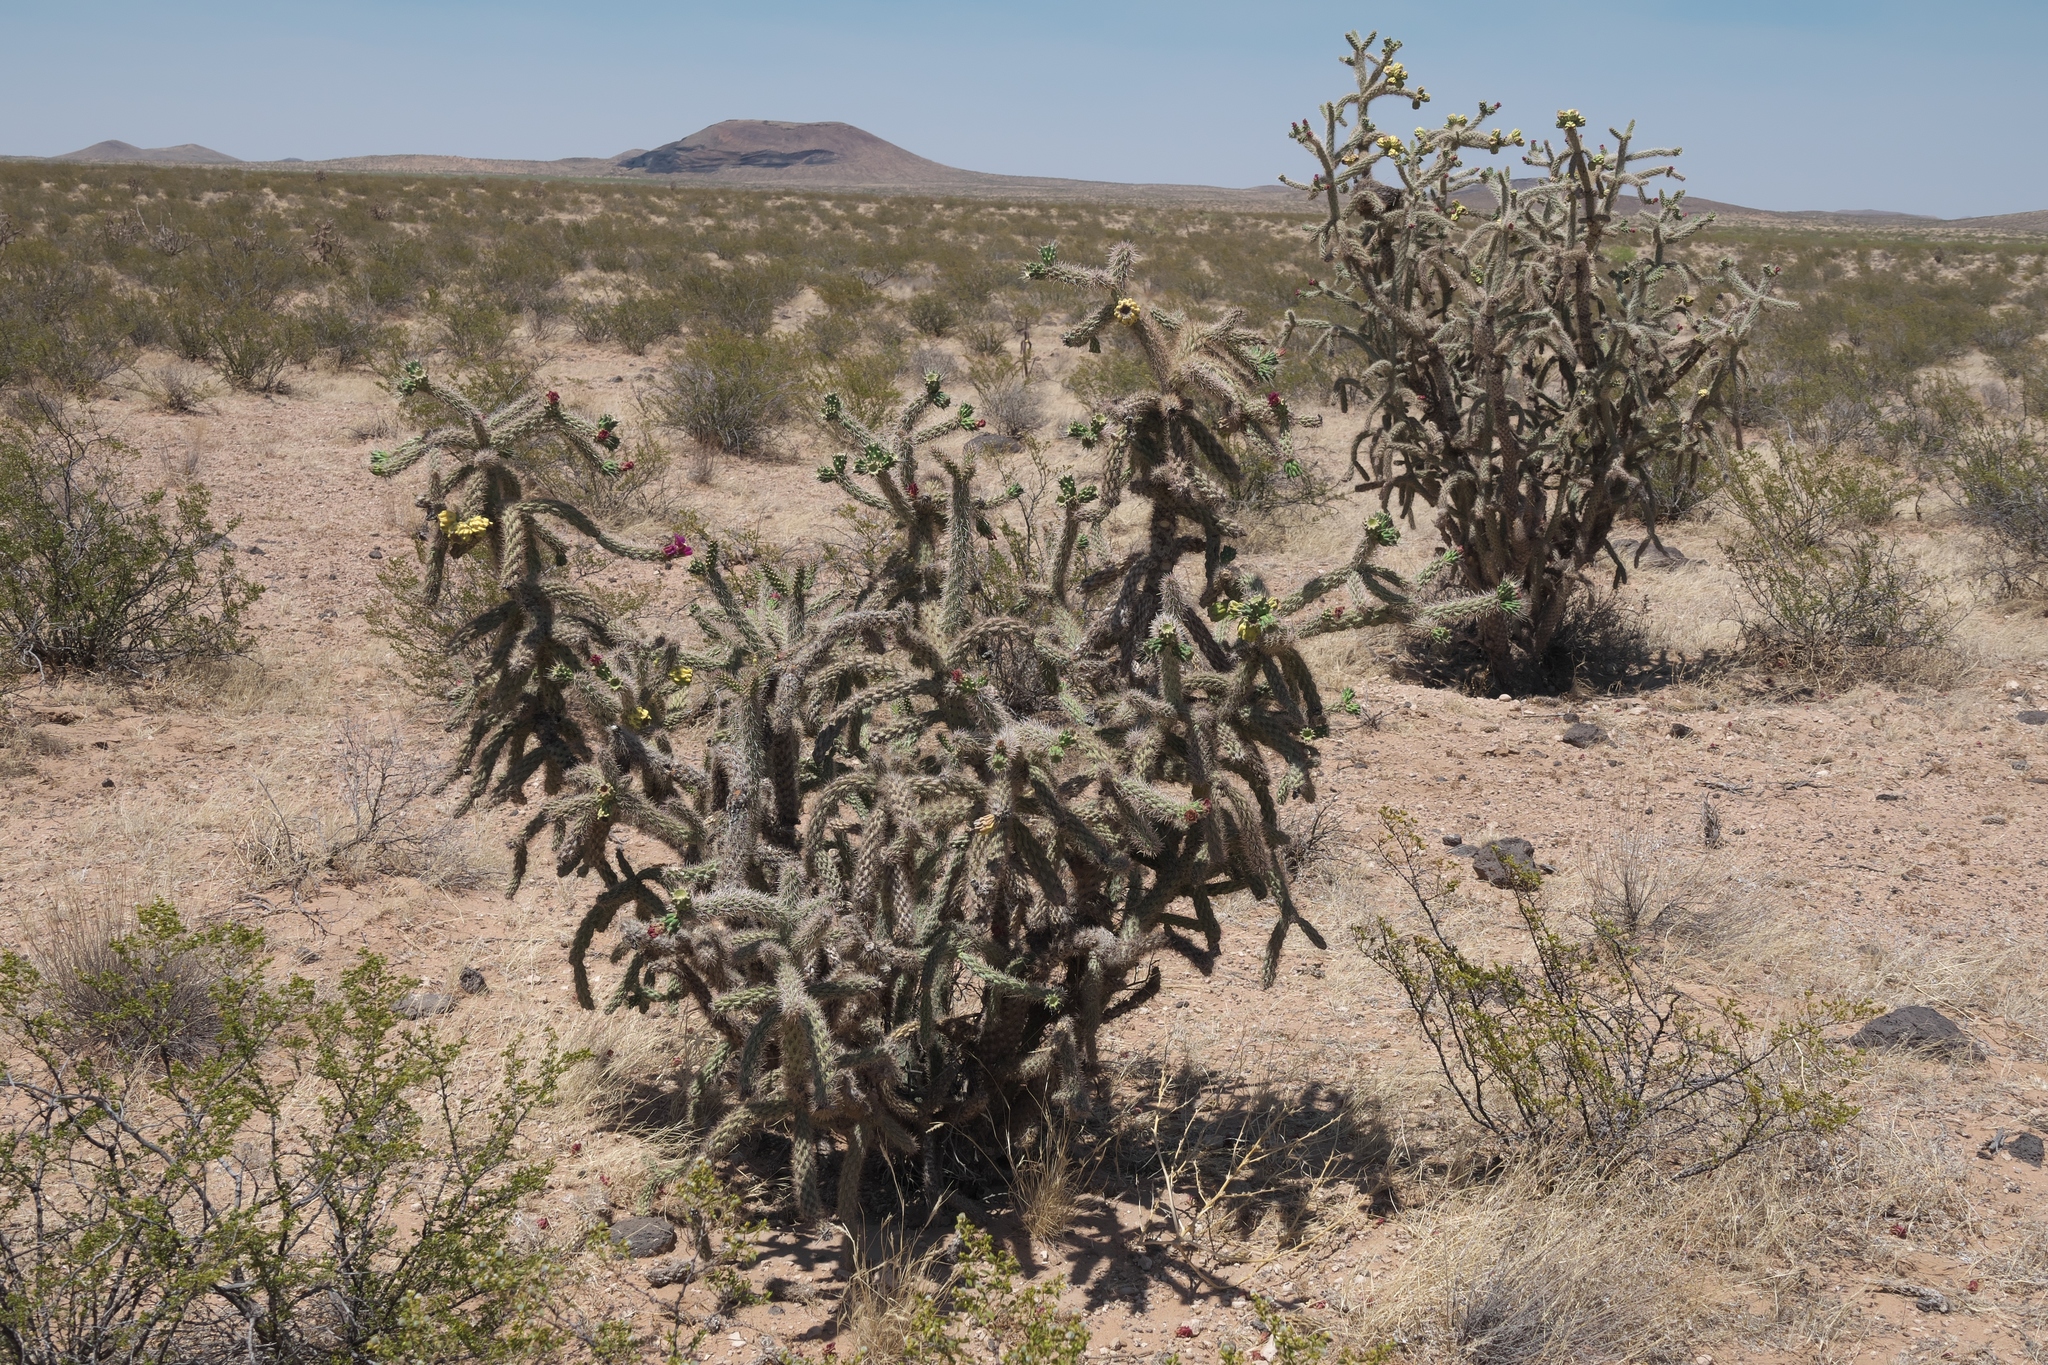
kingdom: Plantae
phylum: Tracheophyta
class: Magnoliopsida
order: Caryophyllales
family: Cactaceae
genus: Cylindropuntia
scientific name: Cylindropuntia imbricata
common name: Candelabrum cactus
